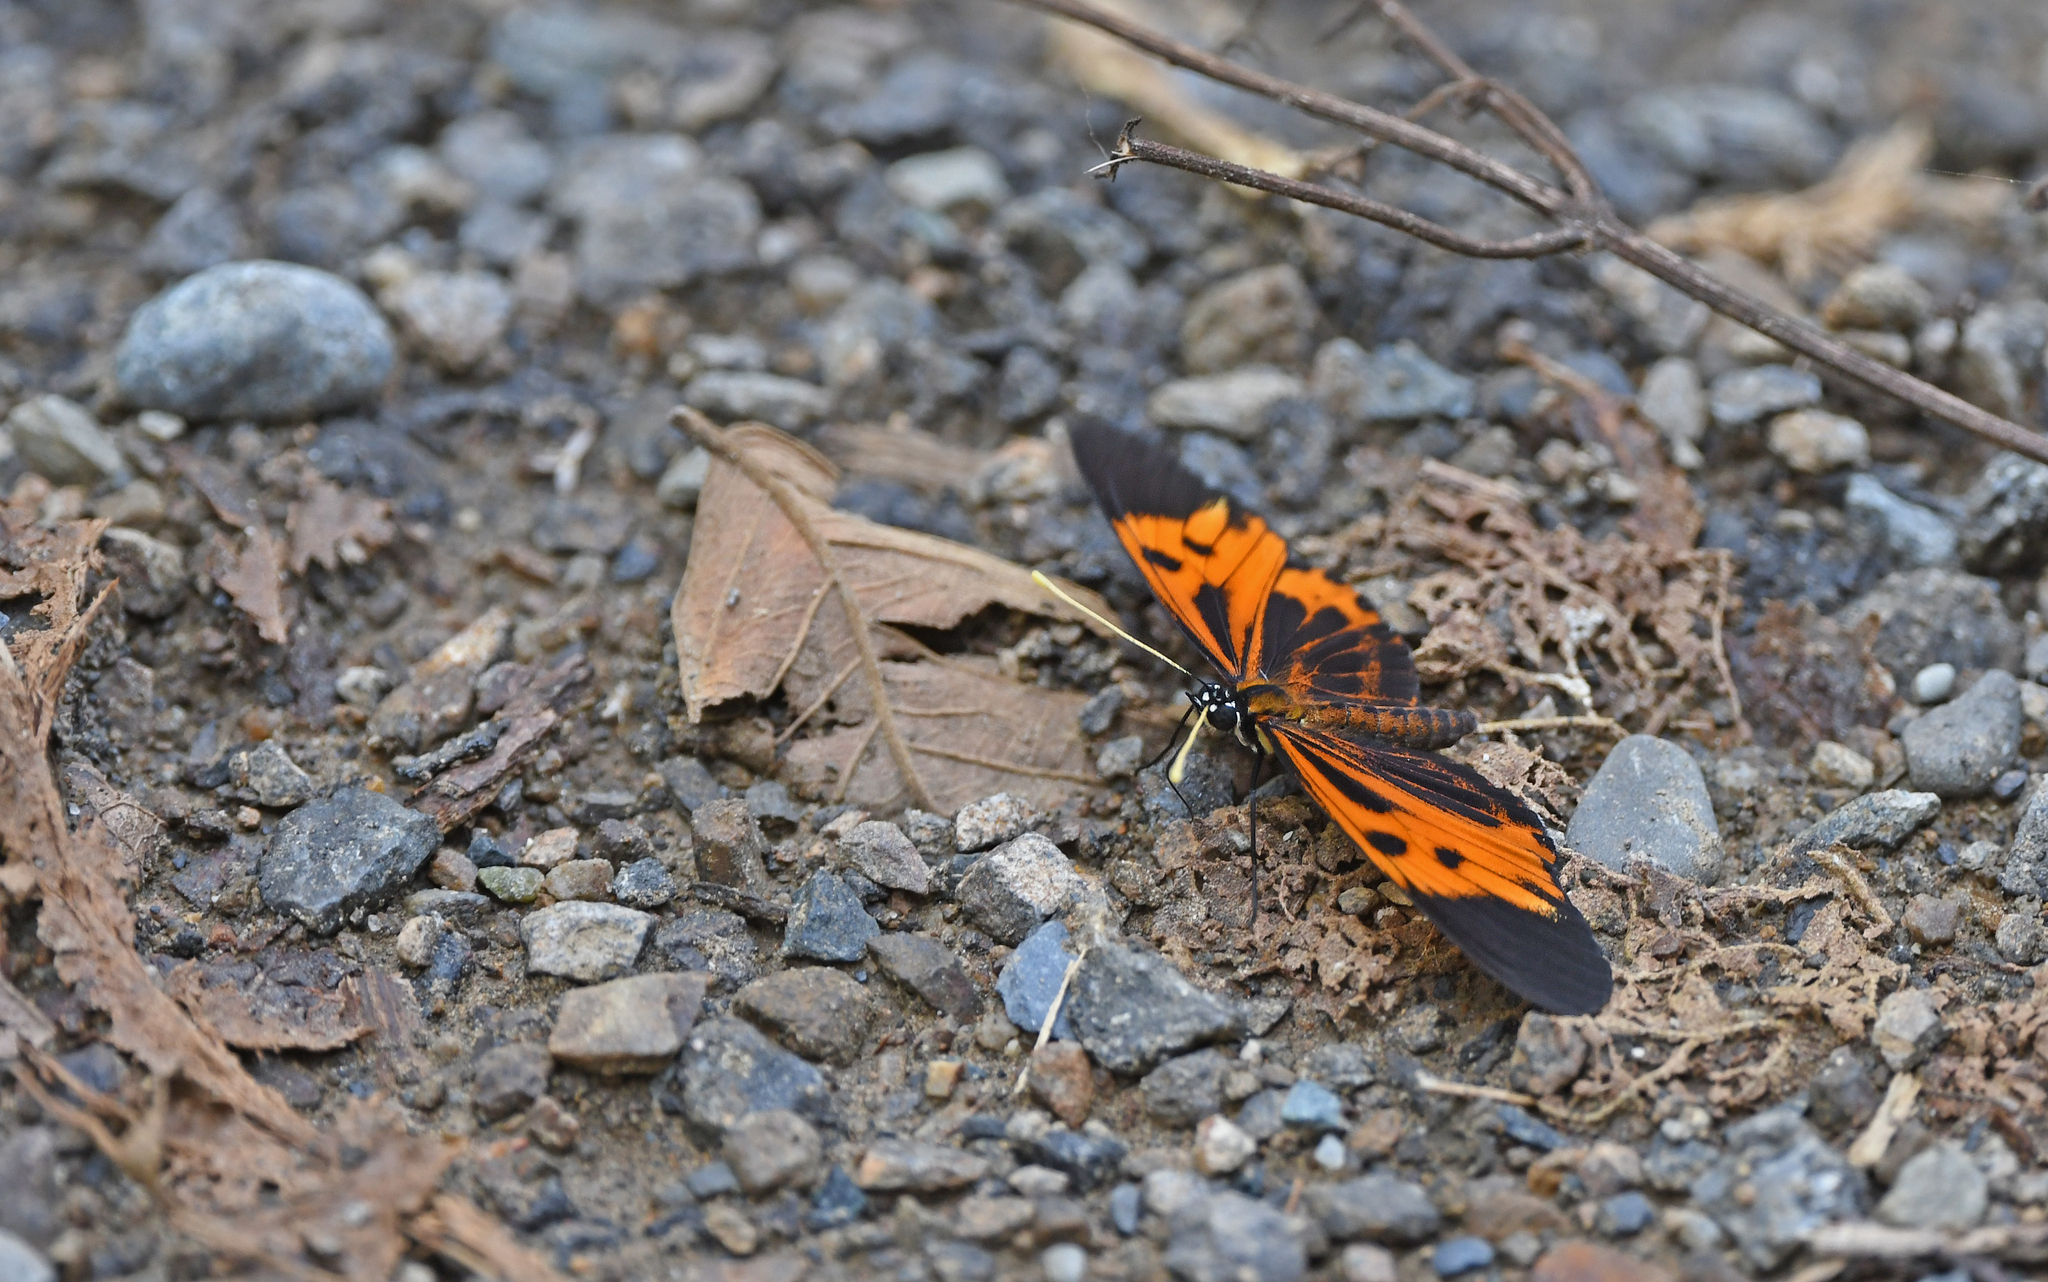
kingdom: Animalia
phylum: Arthropoda
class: Insecta
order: Lepidoptera
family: Nymphalidae
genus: Eresia
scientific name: Eresia pelonia
